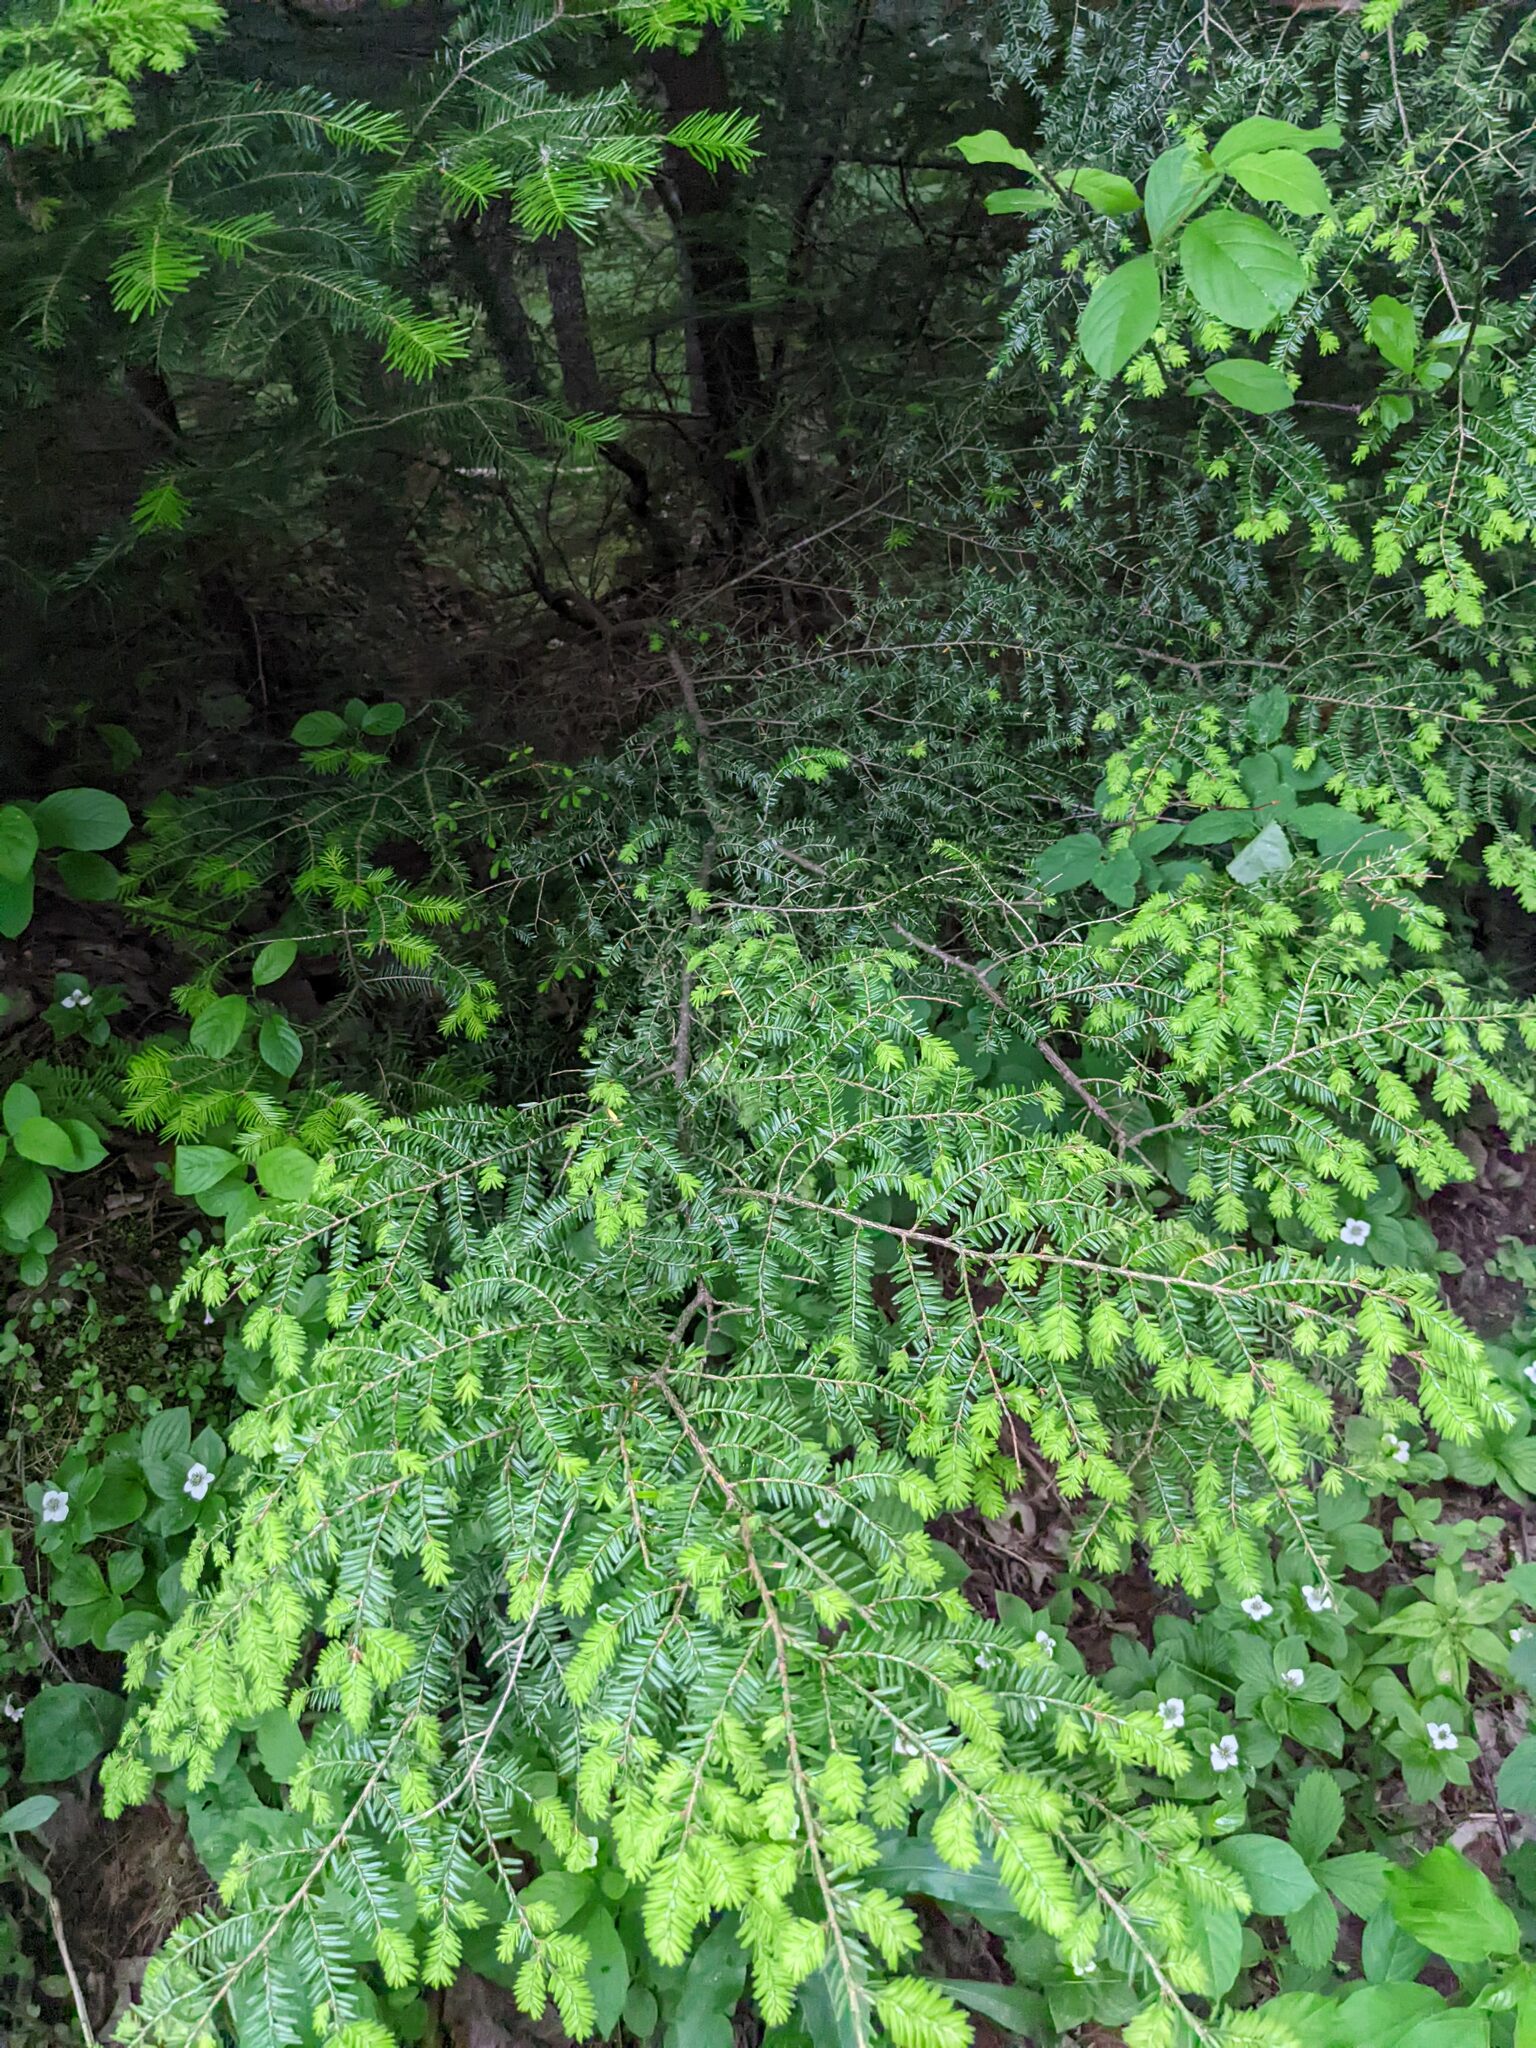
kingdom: Plantae
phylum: Tracheophyta
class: Pinopsida
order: Pinales
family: Pinaceae
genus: Tsuga
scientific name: Tsuga canadensis
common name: Eastern hemlock
